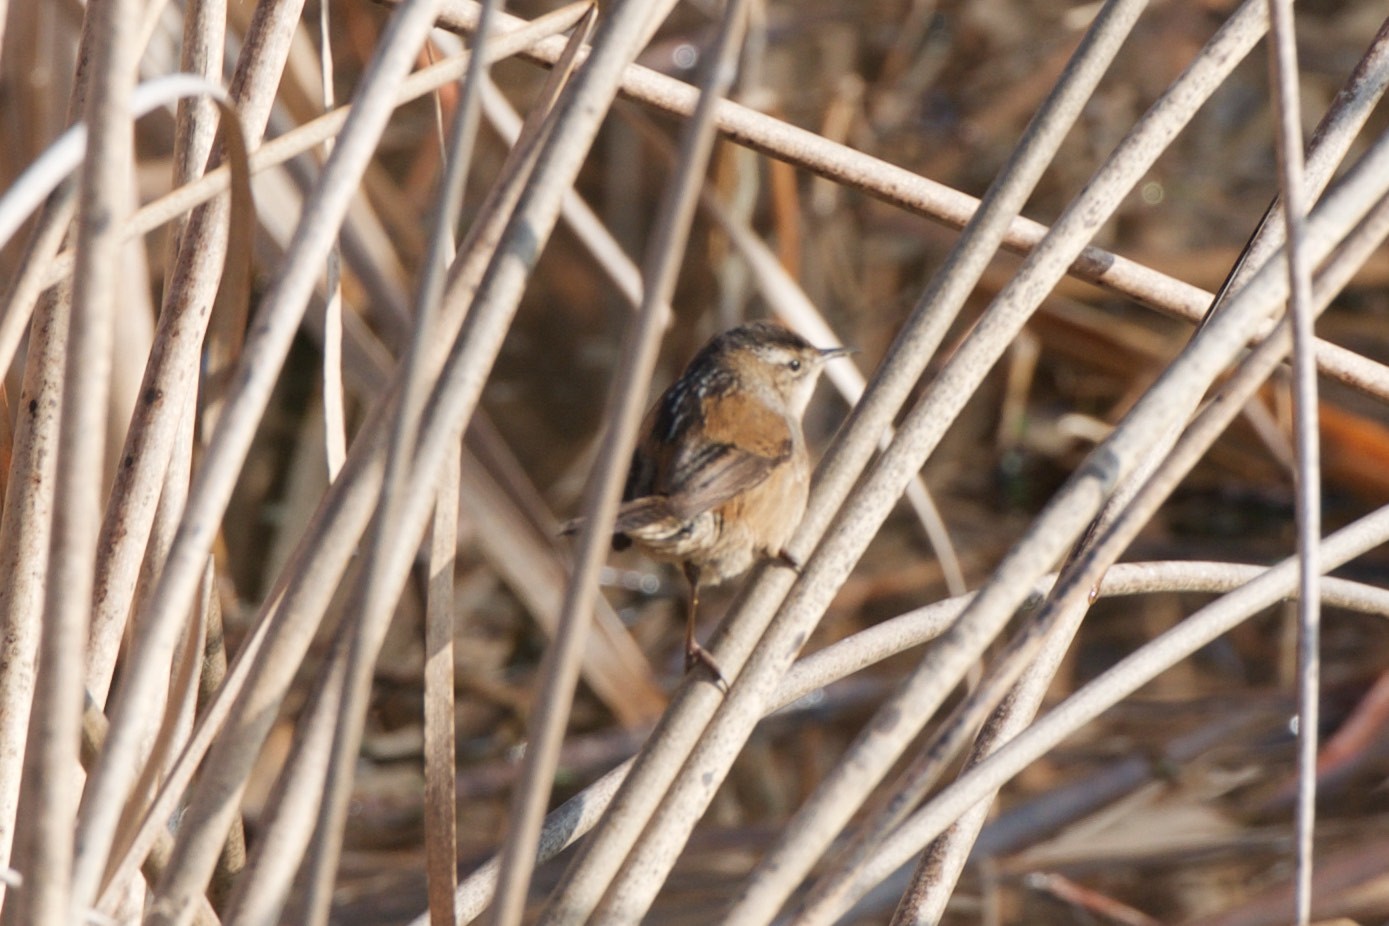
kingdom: Animalia
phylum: Chordata
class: Aves
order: Passeriformes
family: Troglodytidae
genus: Cistothorus
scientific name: Cistothorus palustris
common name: Marsh wren
